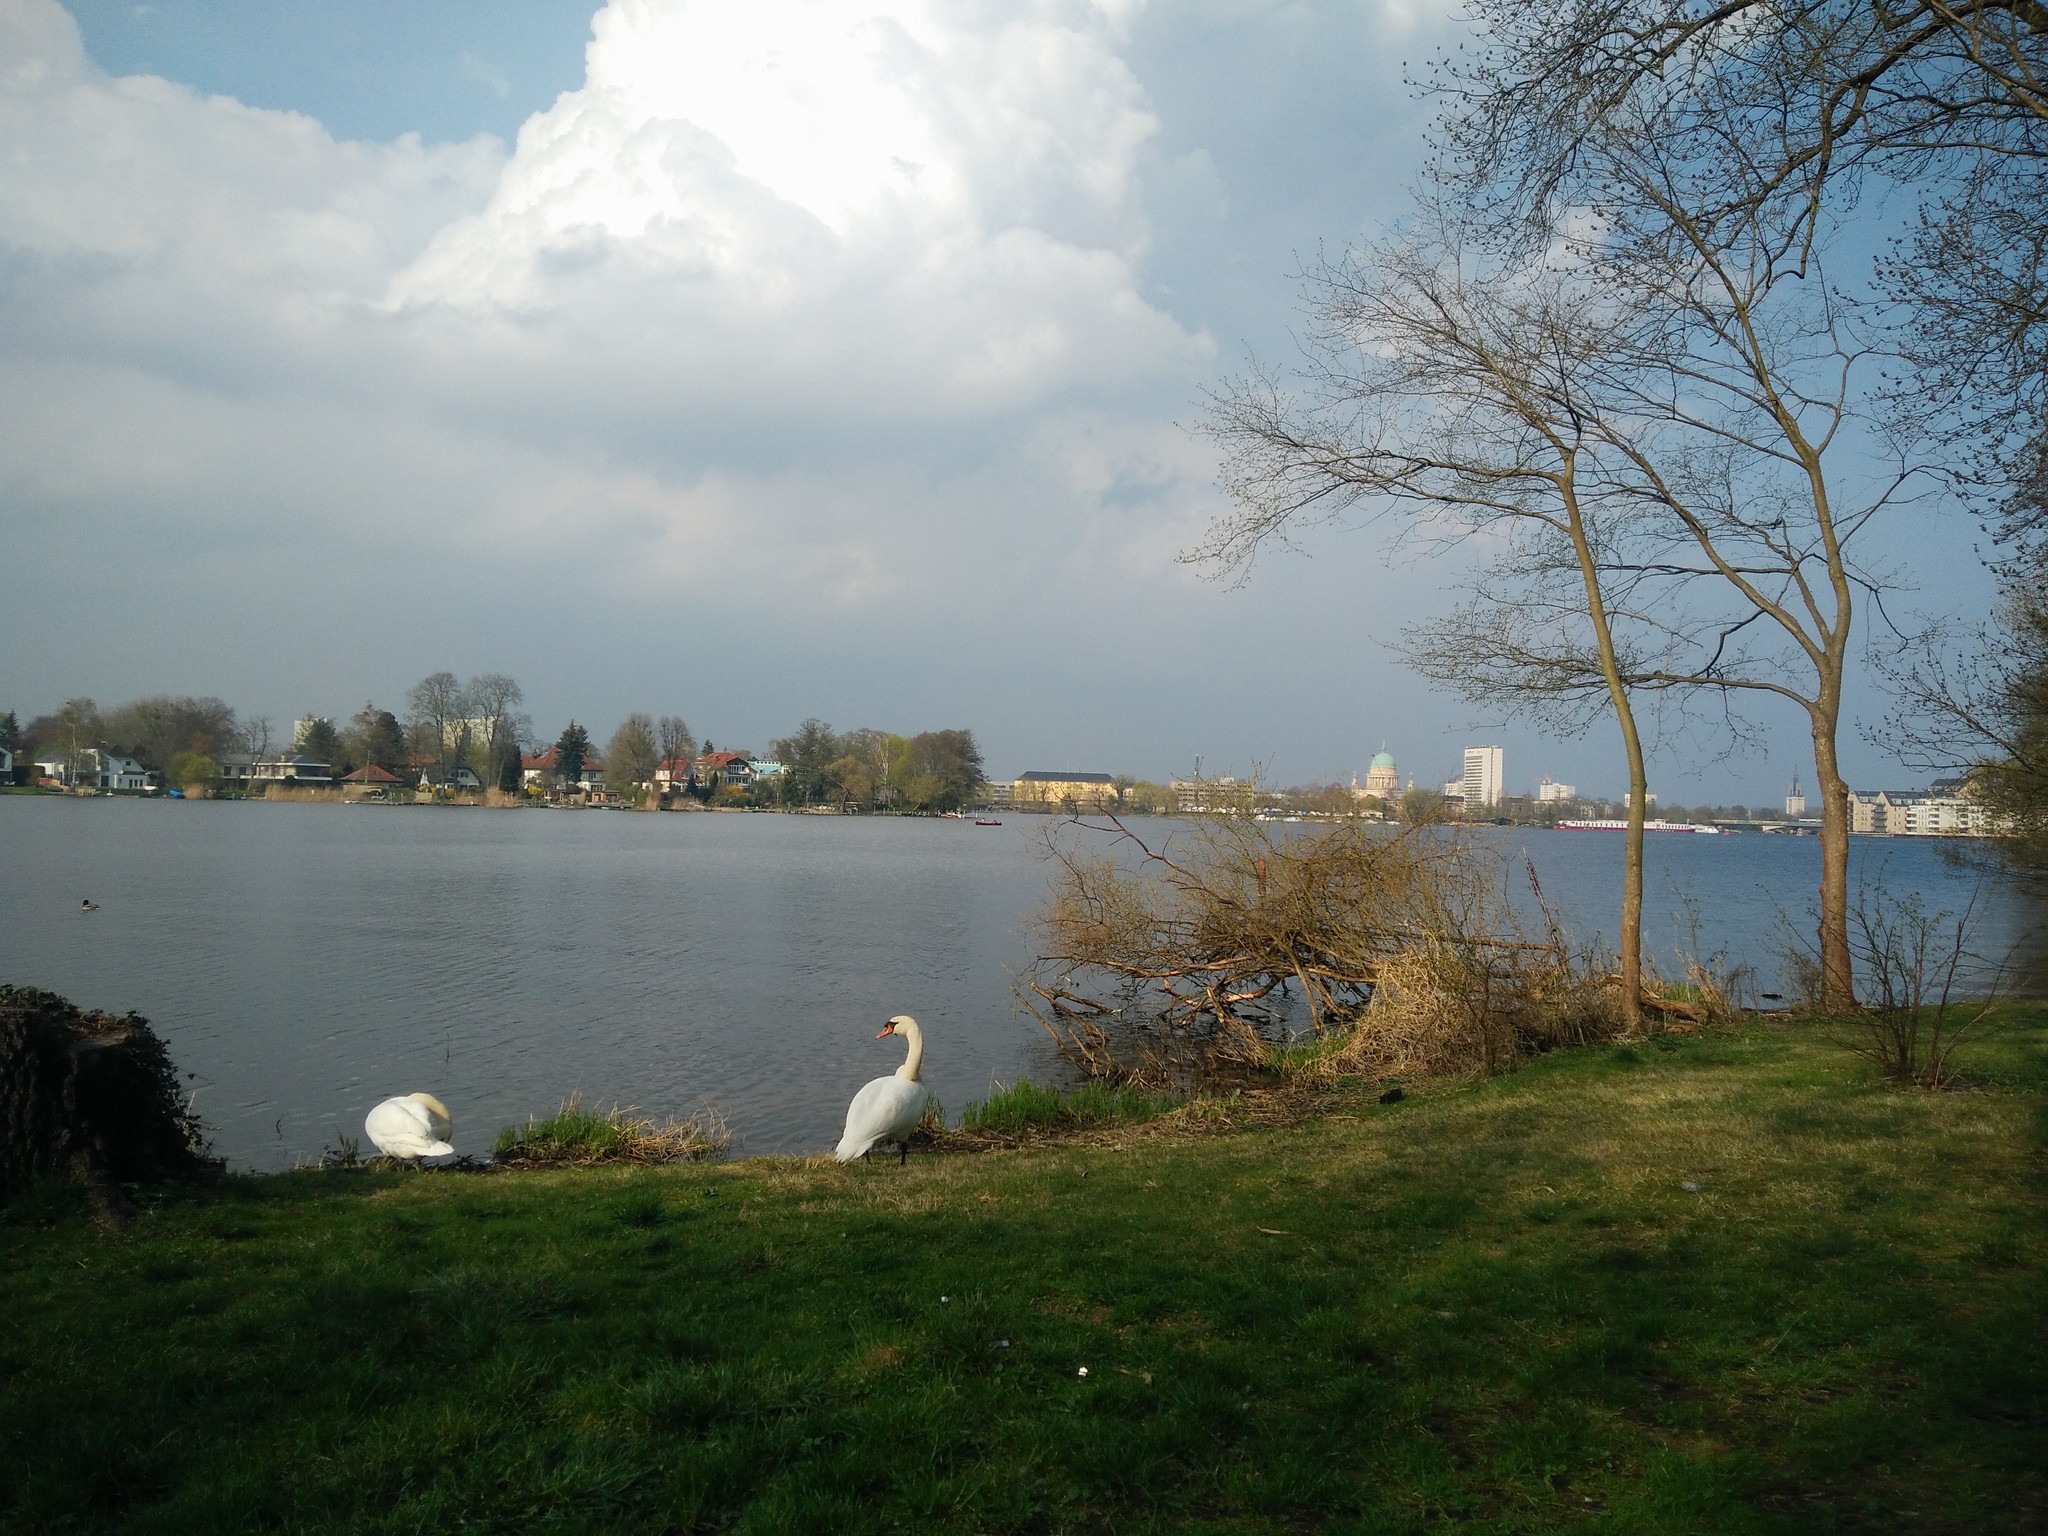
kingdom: Animalia
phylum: Chordata
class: Aves
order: Anseriformes
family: Anatidae
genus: Cygnus
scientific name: Cygnus olor
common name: Mute swan
